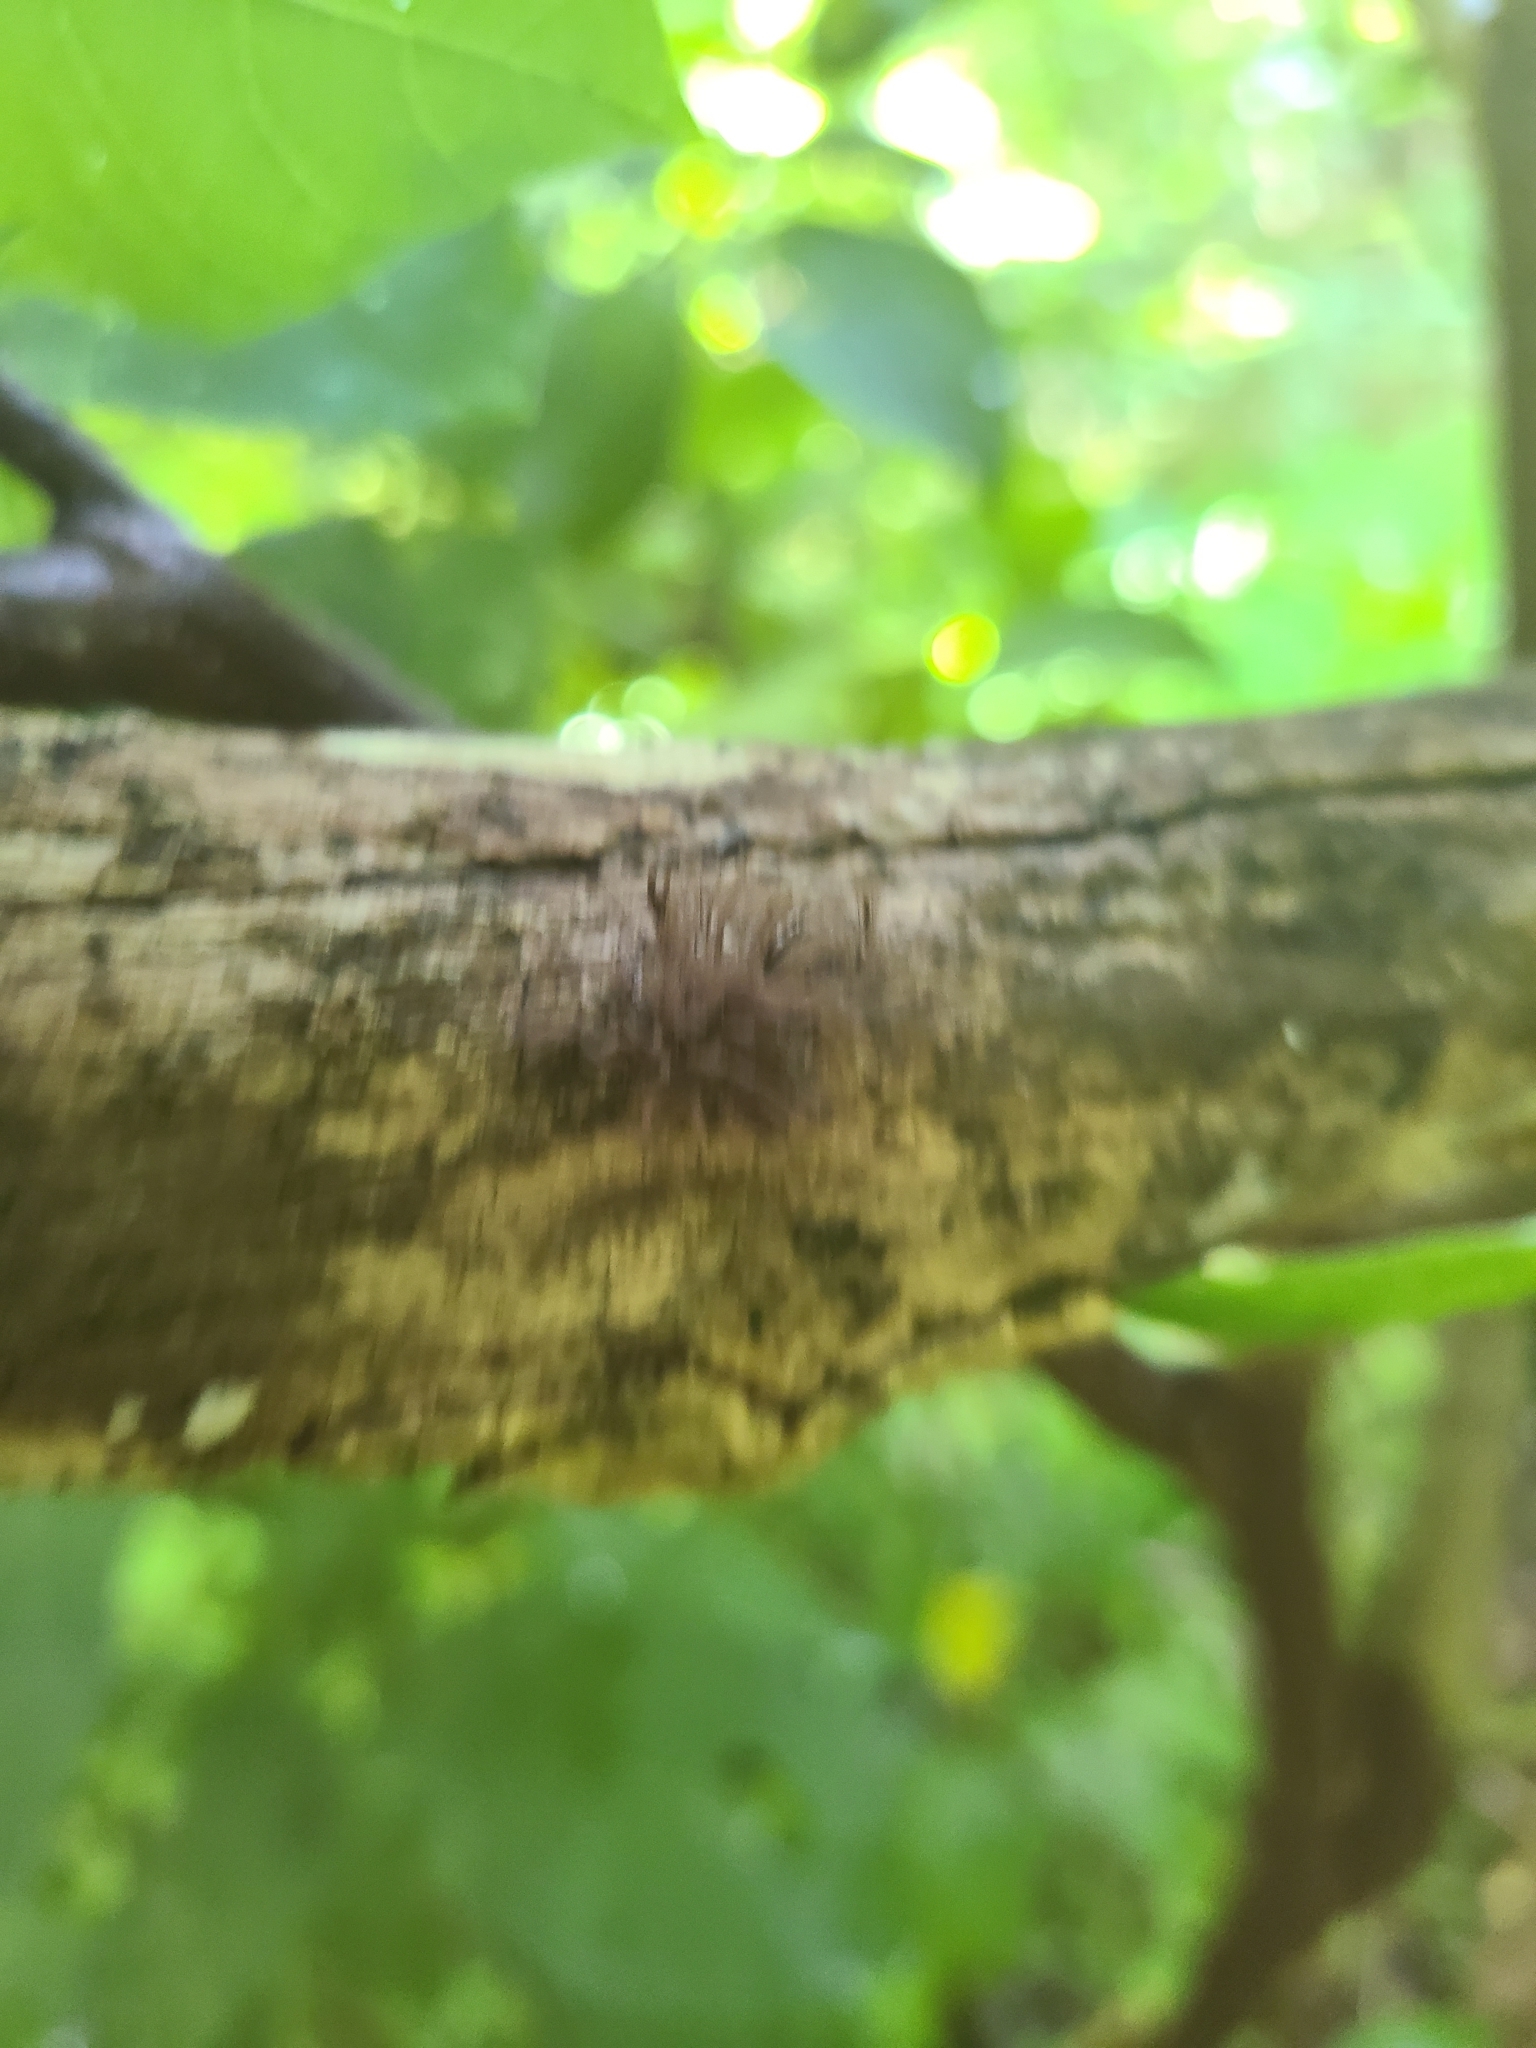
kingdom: Protozoa
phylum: Mycetozoa
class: Myxomycetes
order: Stemonitidales
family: Stemonitidaceae
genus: Stemonitis
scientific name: Stemonitis splendens
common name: Chocolate tube slime
